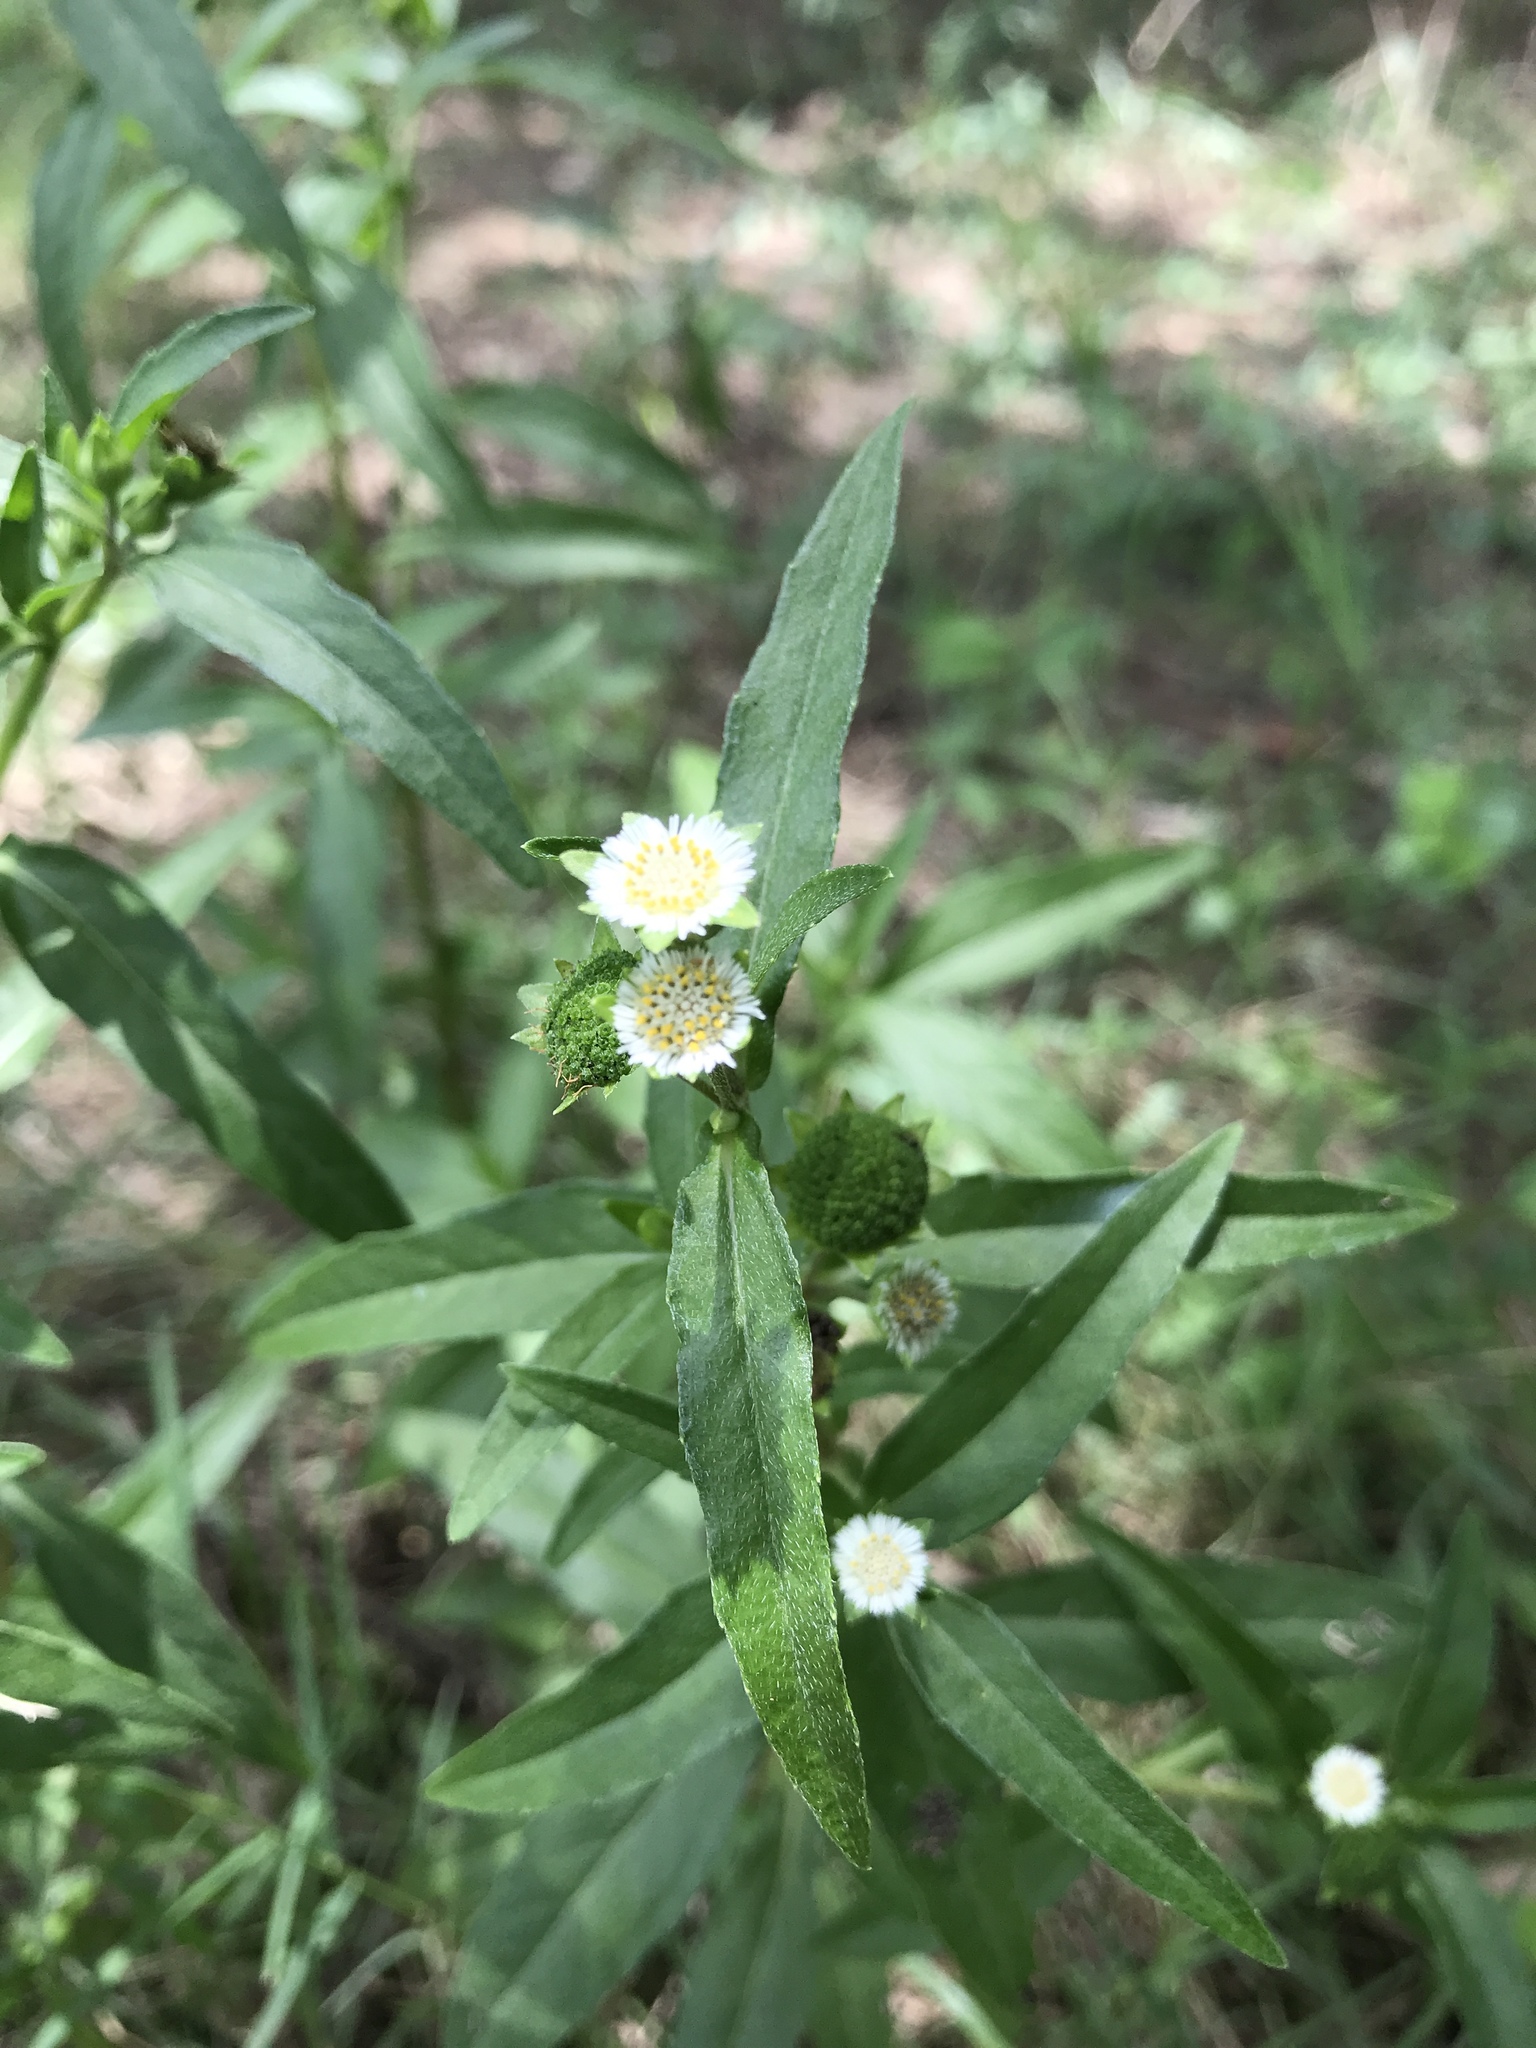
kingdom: Plantae
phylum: Tracheophyta
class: Magnoliopsida
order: Asterales
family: Asteraceae
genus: Eclipta
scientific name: Eclipta prostrata
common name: False daisy
